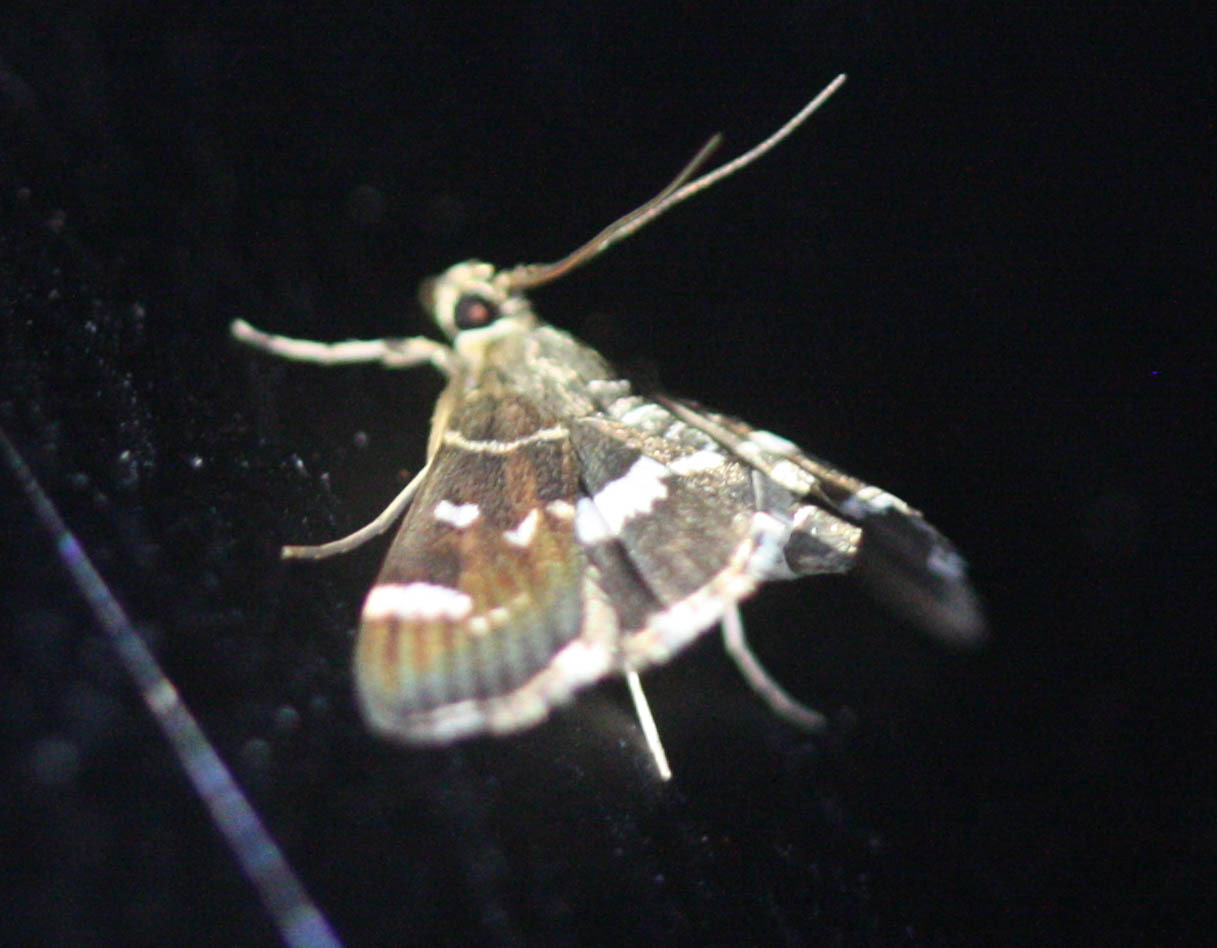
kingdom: Animalia
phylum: Arthropoda
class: Insecta
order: Lepidoptera
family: Crambidae
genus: Hymenia
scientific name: Hymenia perspectalis
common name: Spotted beet webworm
